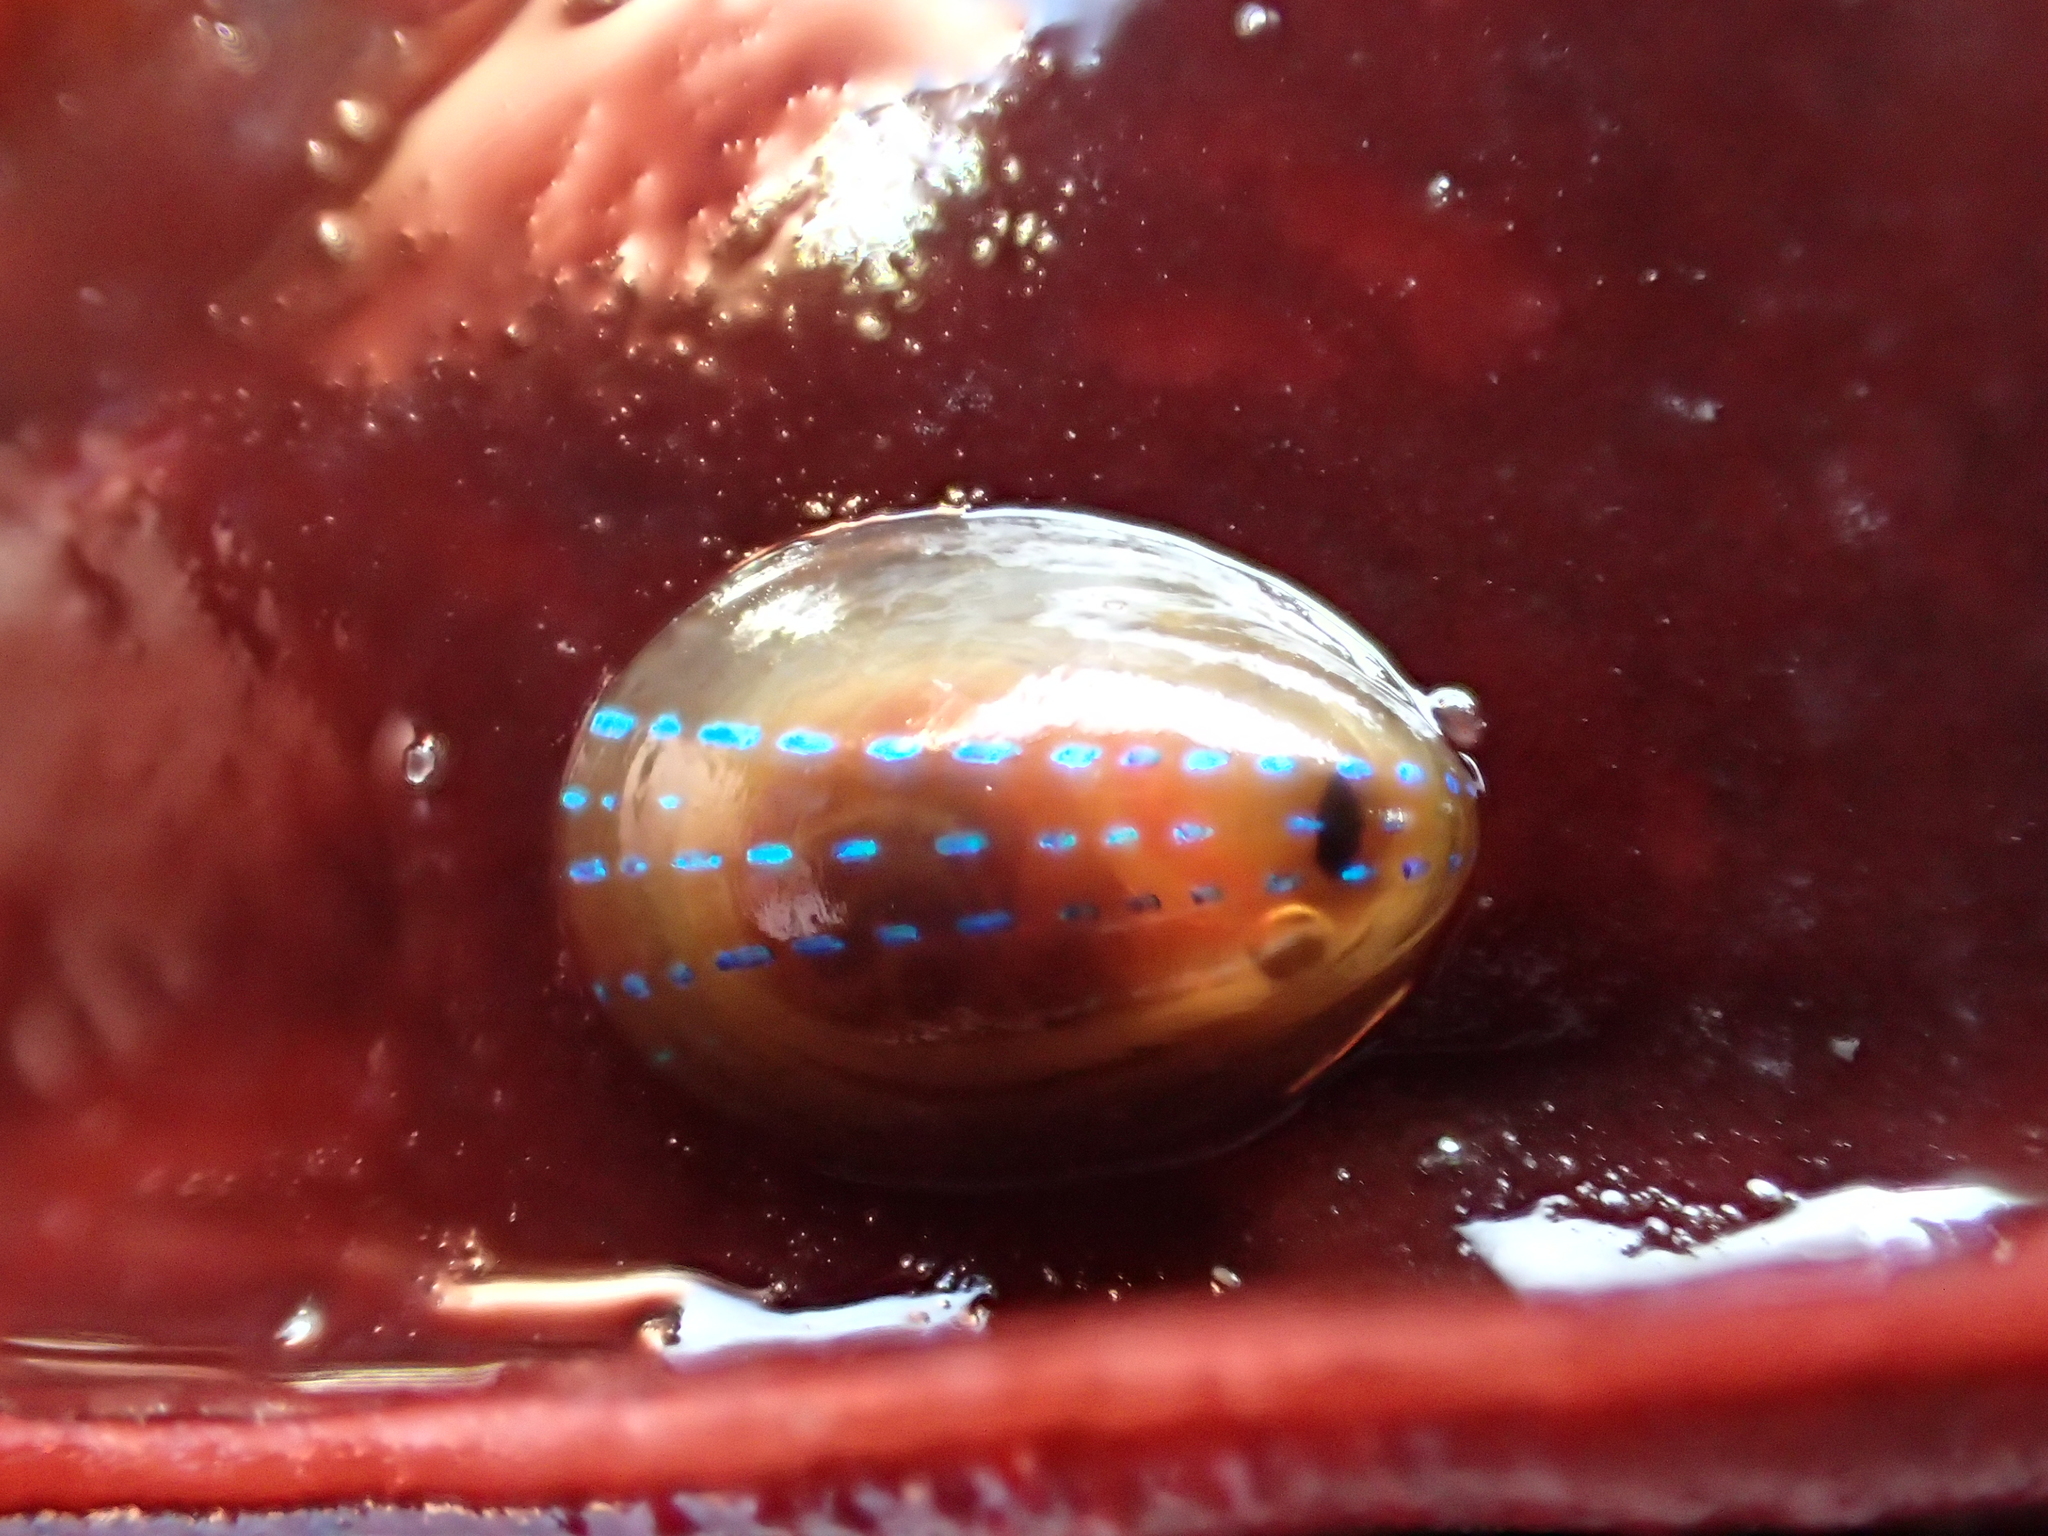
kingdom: Animalia
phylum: Mollusca
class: Gastropoda
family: Patellidae
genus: Patella
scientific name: Patella pellucida
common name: Blue-rayed limpet
